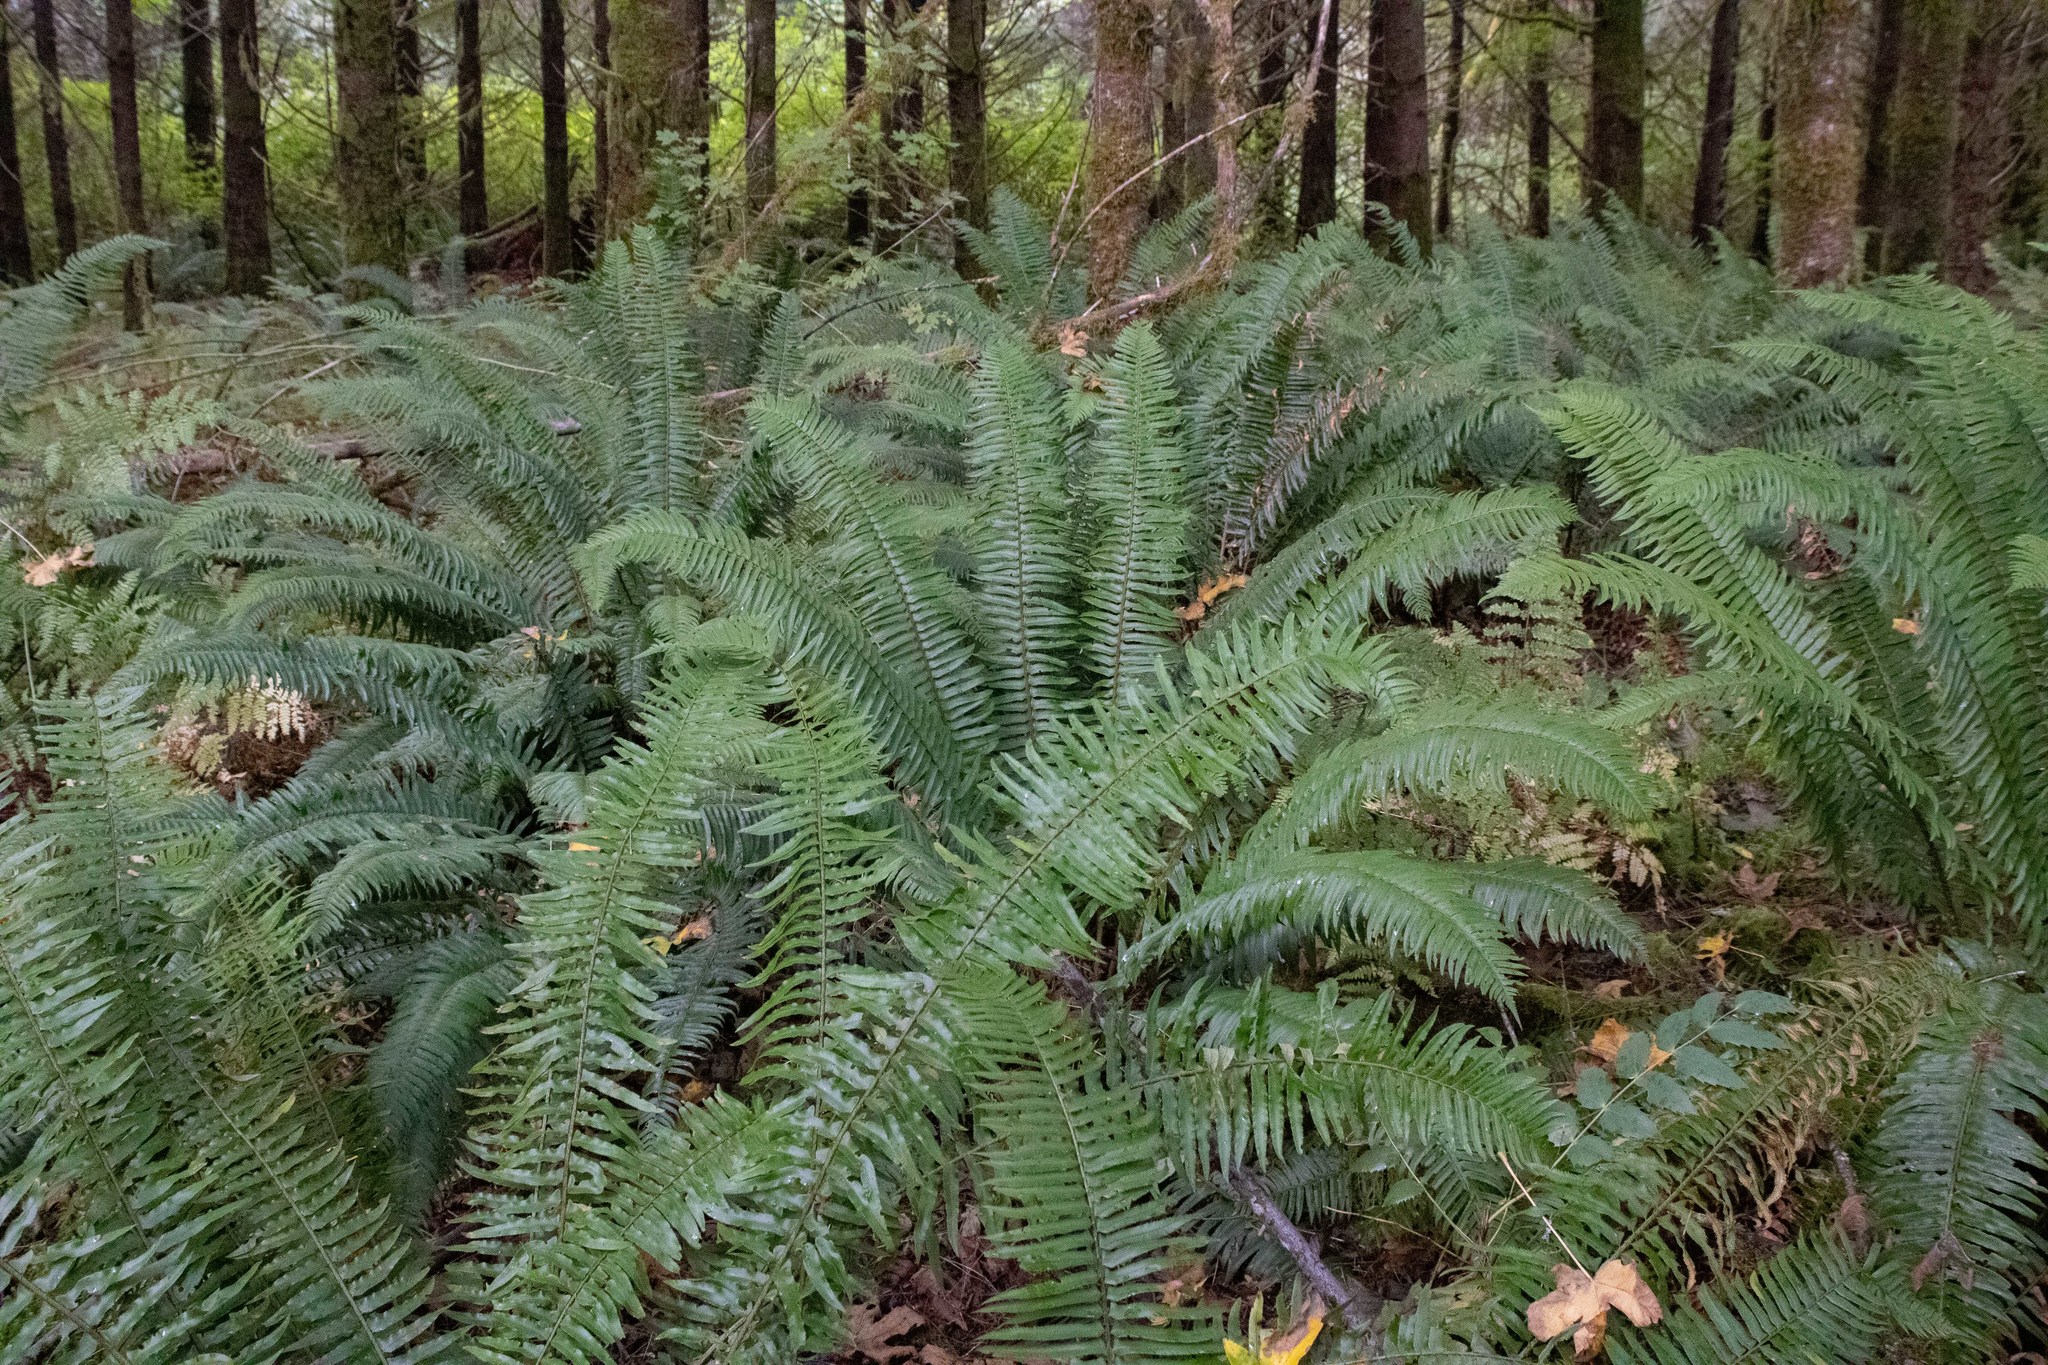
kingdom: Plantae
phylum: Tracheophyta
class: Polypodiopsida
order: Polypodiales
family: Dryopteridaceae
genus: Polystichum
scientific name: Polystichum munitum
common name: Western sword-fern
